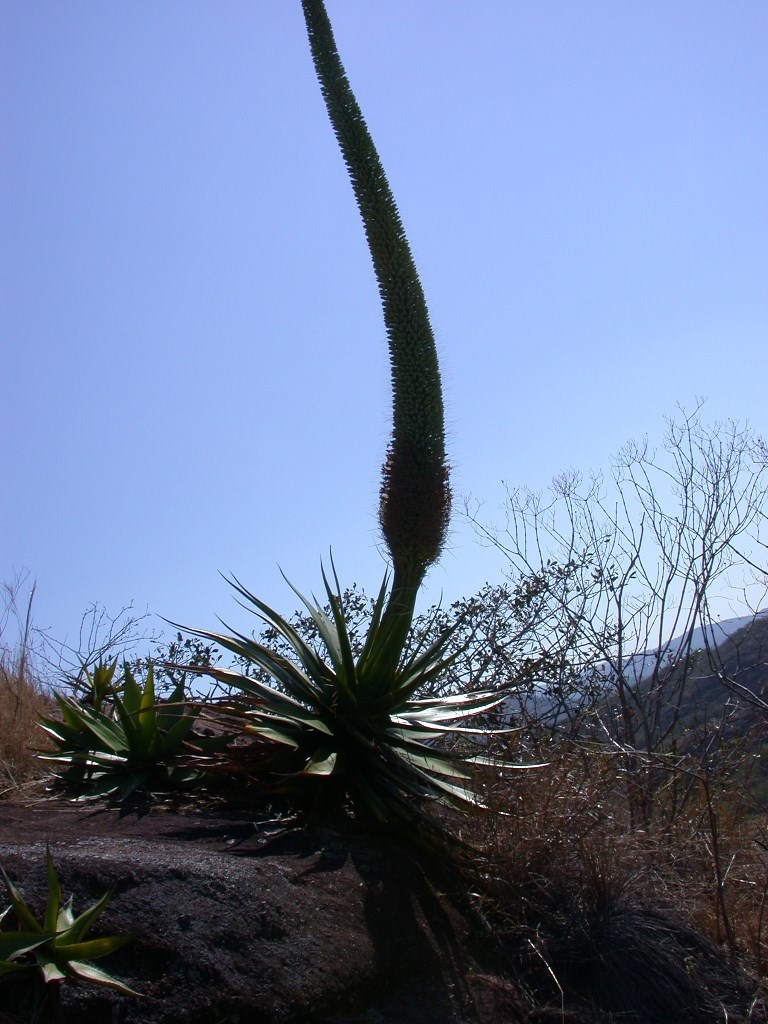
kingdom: Plantae
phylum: Tracheophyta
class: Liliopsida
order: Asparagales
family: Asparagaceae
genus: Agave
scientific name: Agave warelliana
